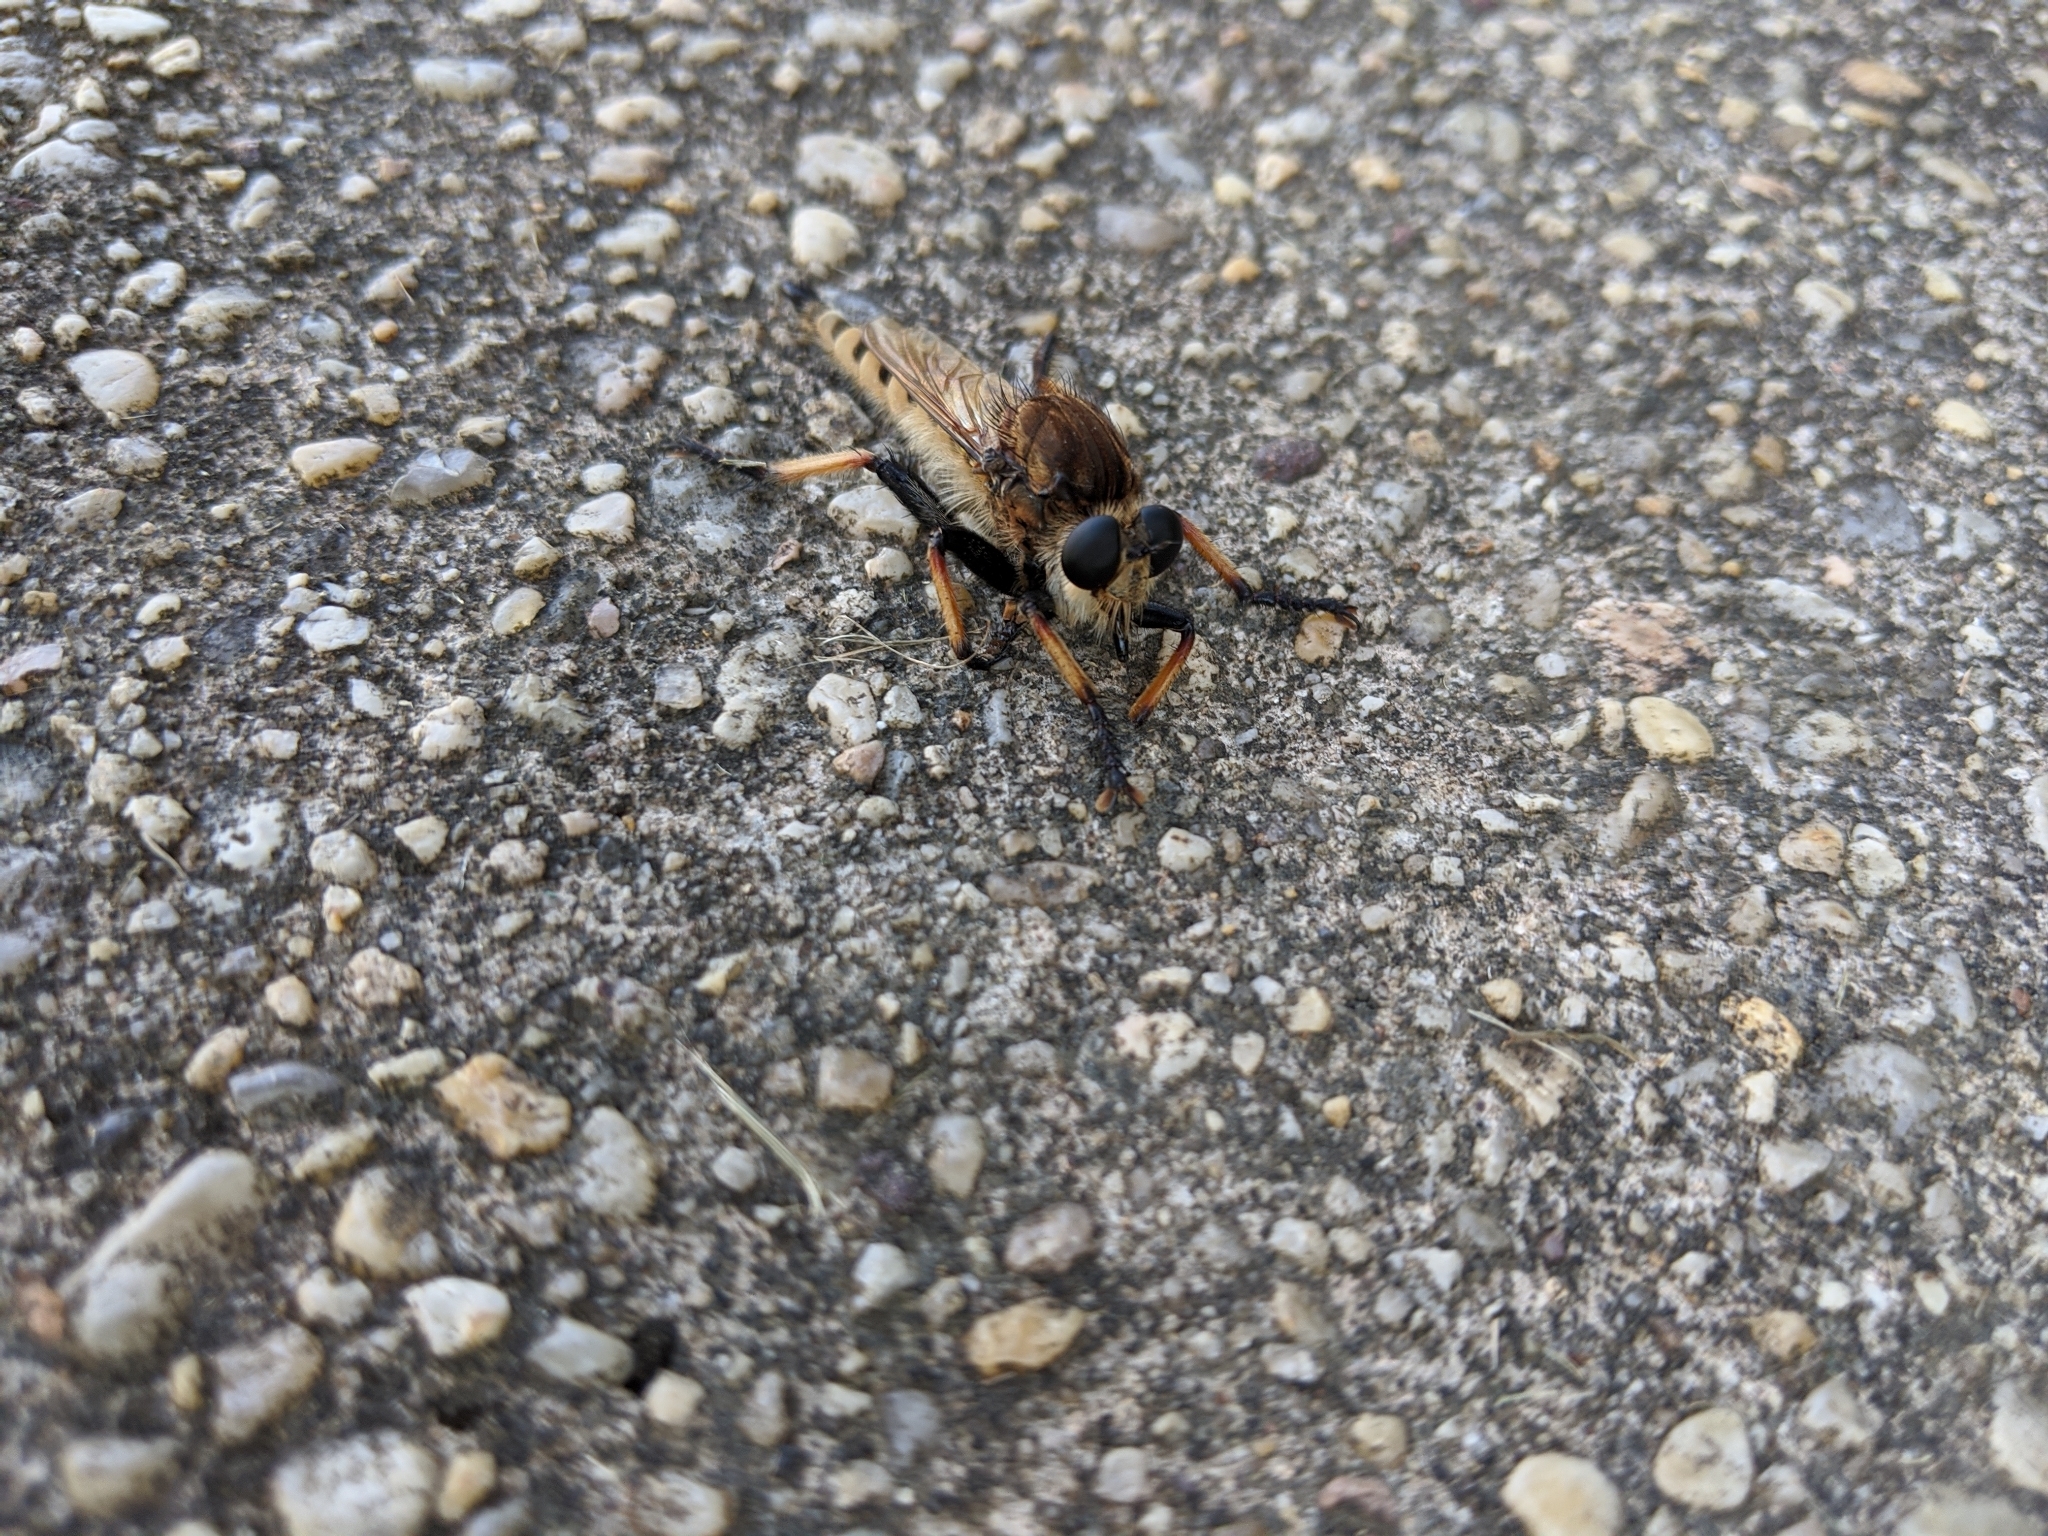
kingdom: Animalia
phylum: Arthropoda
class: Insecta
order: Diptera
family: Asilidae
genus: Promachus
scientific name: Promachus rufipes
